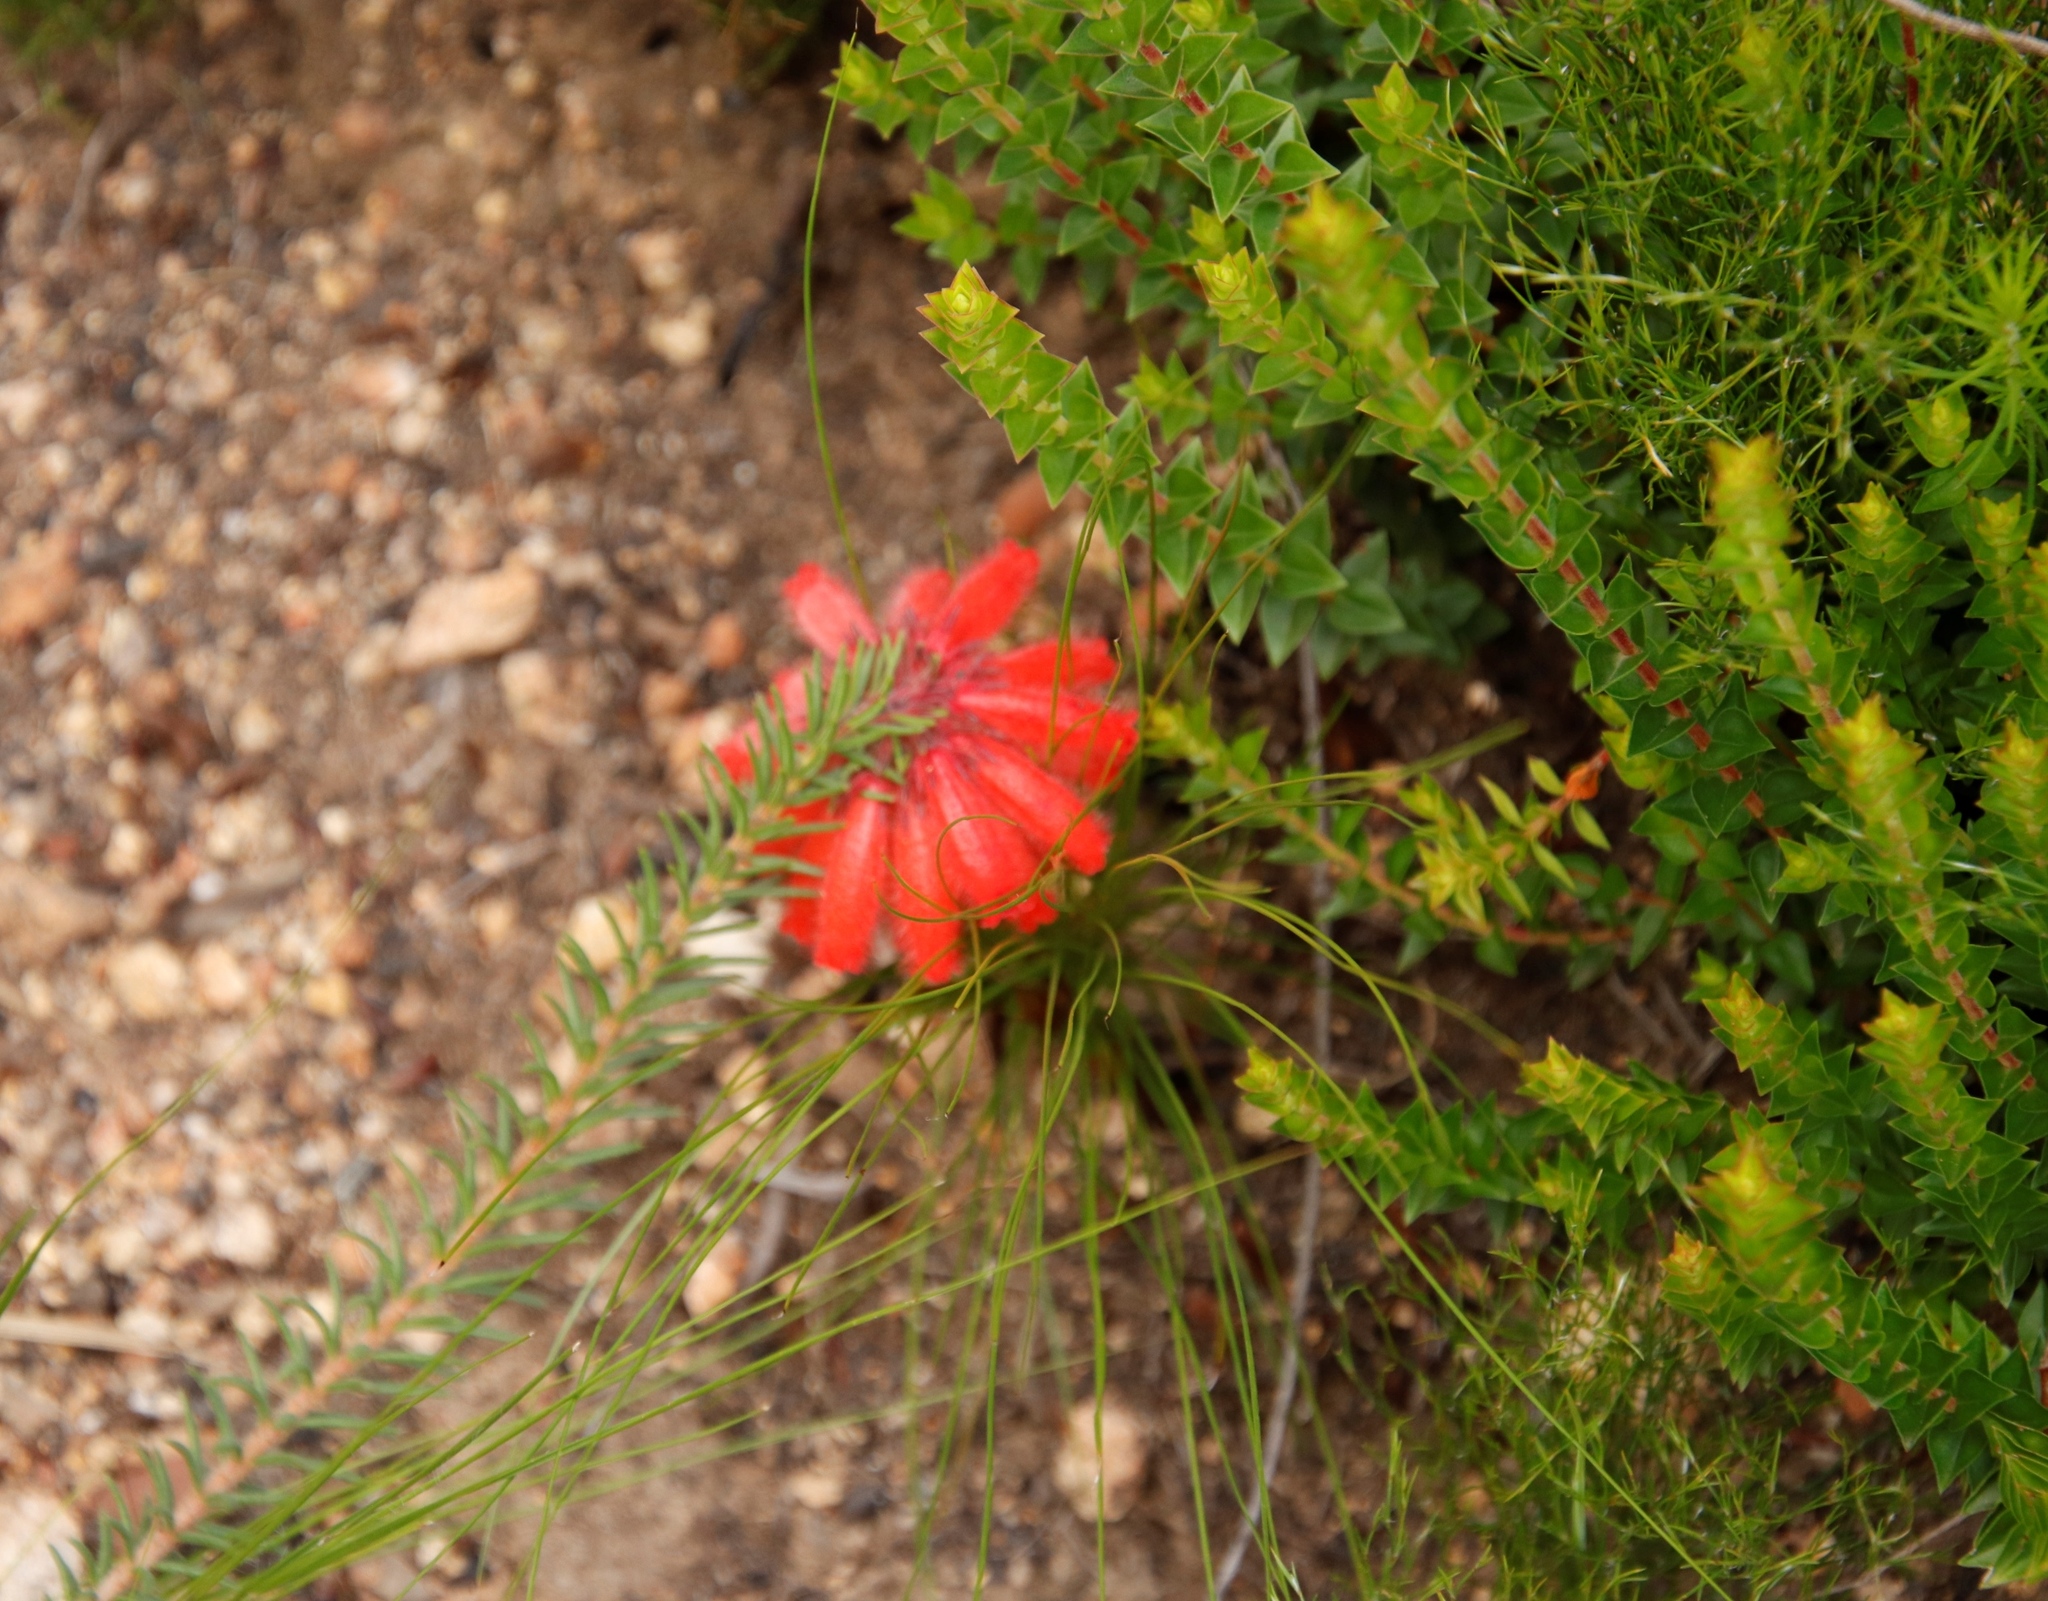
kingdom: Plantae
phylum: Tracheophyta
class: Magnoliopsida
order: Ericales
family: Ericaceae
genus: Erica
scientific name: Erica cerinthoides
